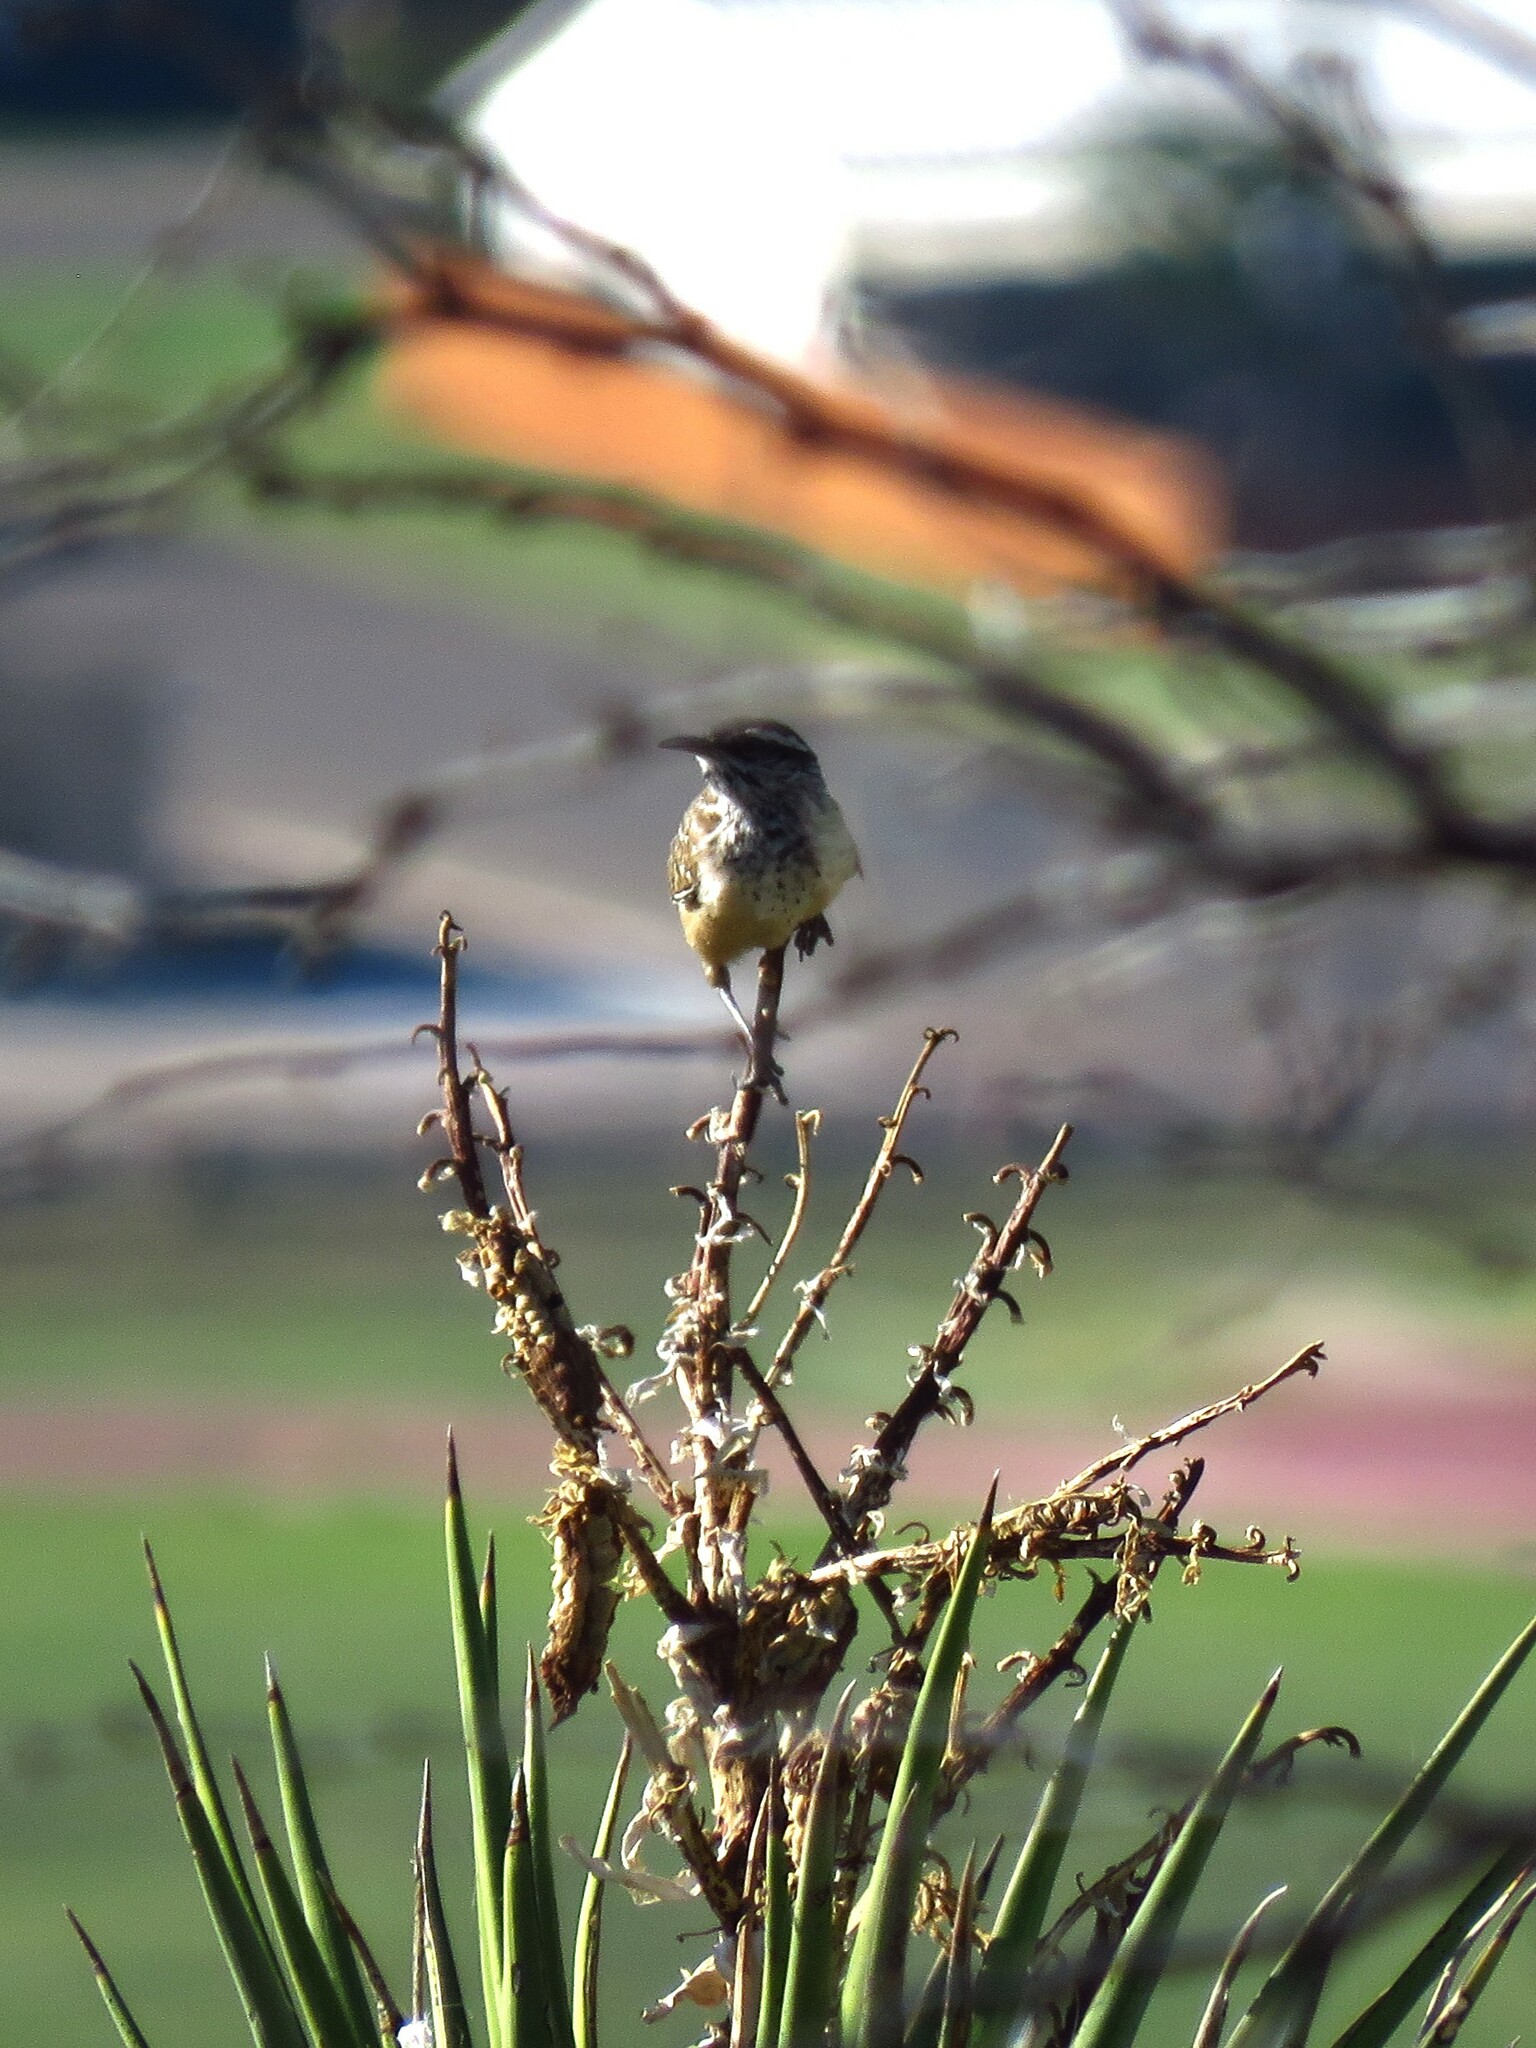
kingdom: Animalia
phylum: Chordata
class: Aves
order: Passeriformes
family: Troglodytidae
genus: Campylorhynchus
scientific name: Campylorhynchus brunneicapillus
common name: Cactus wren
